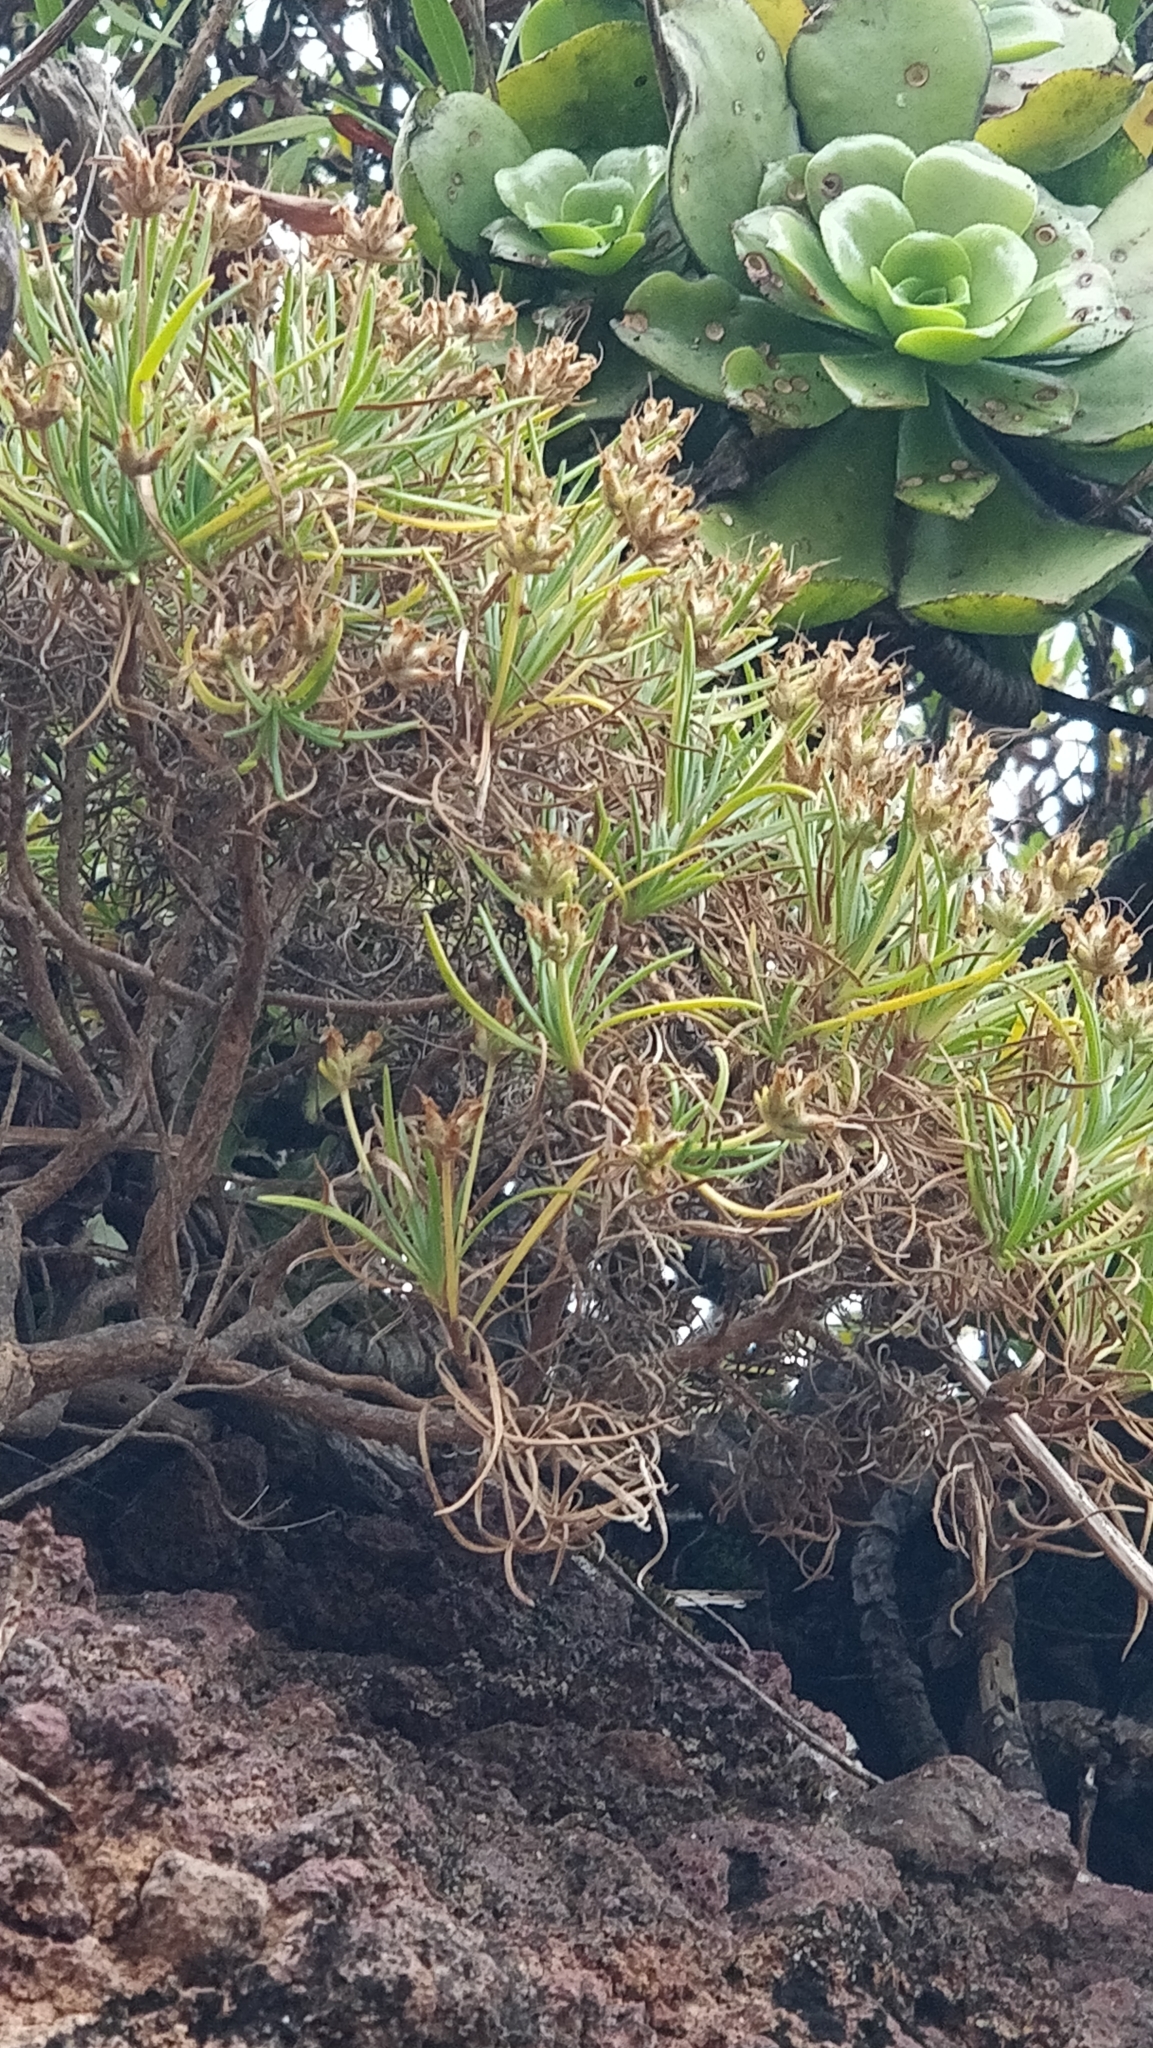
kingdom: Plantae
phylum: Tracheophyta
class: Magnoliopsida
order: Lamiales
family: Plantaginaceae
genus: Plantago
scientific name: Plantago arborescens
